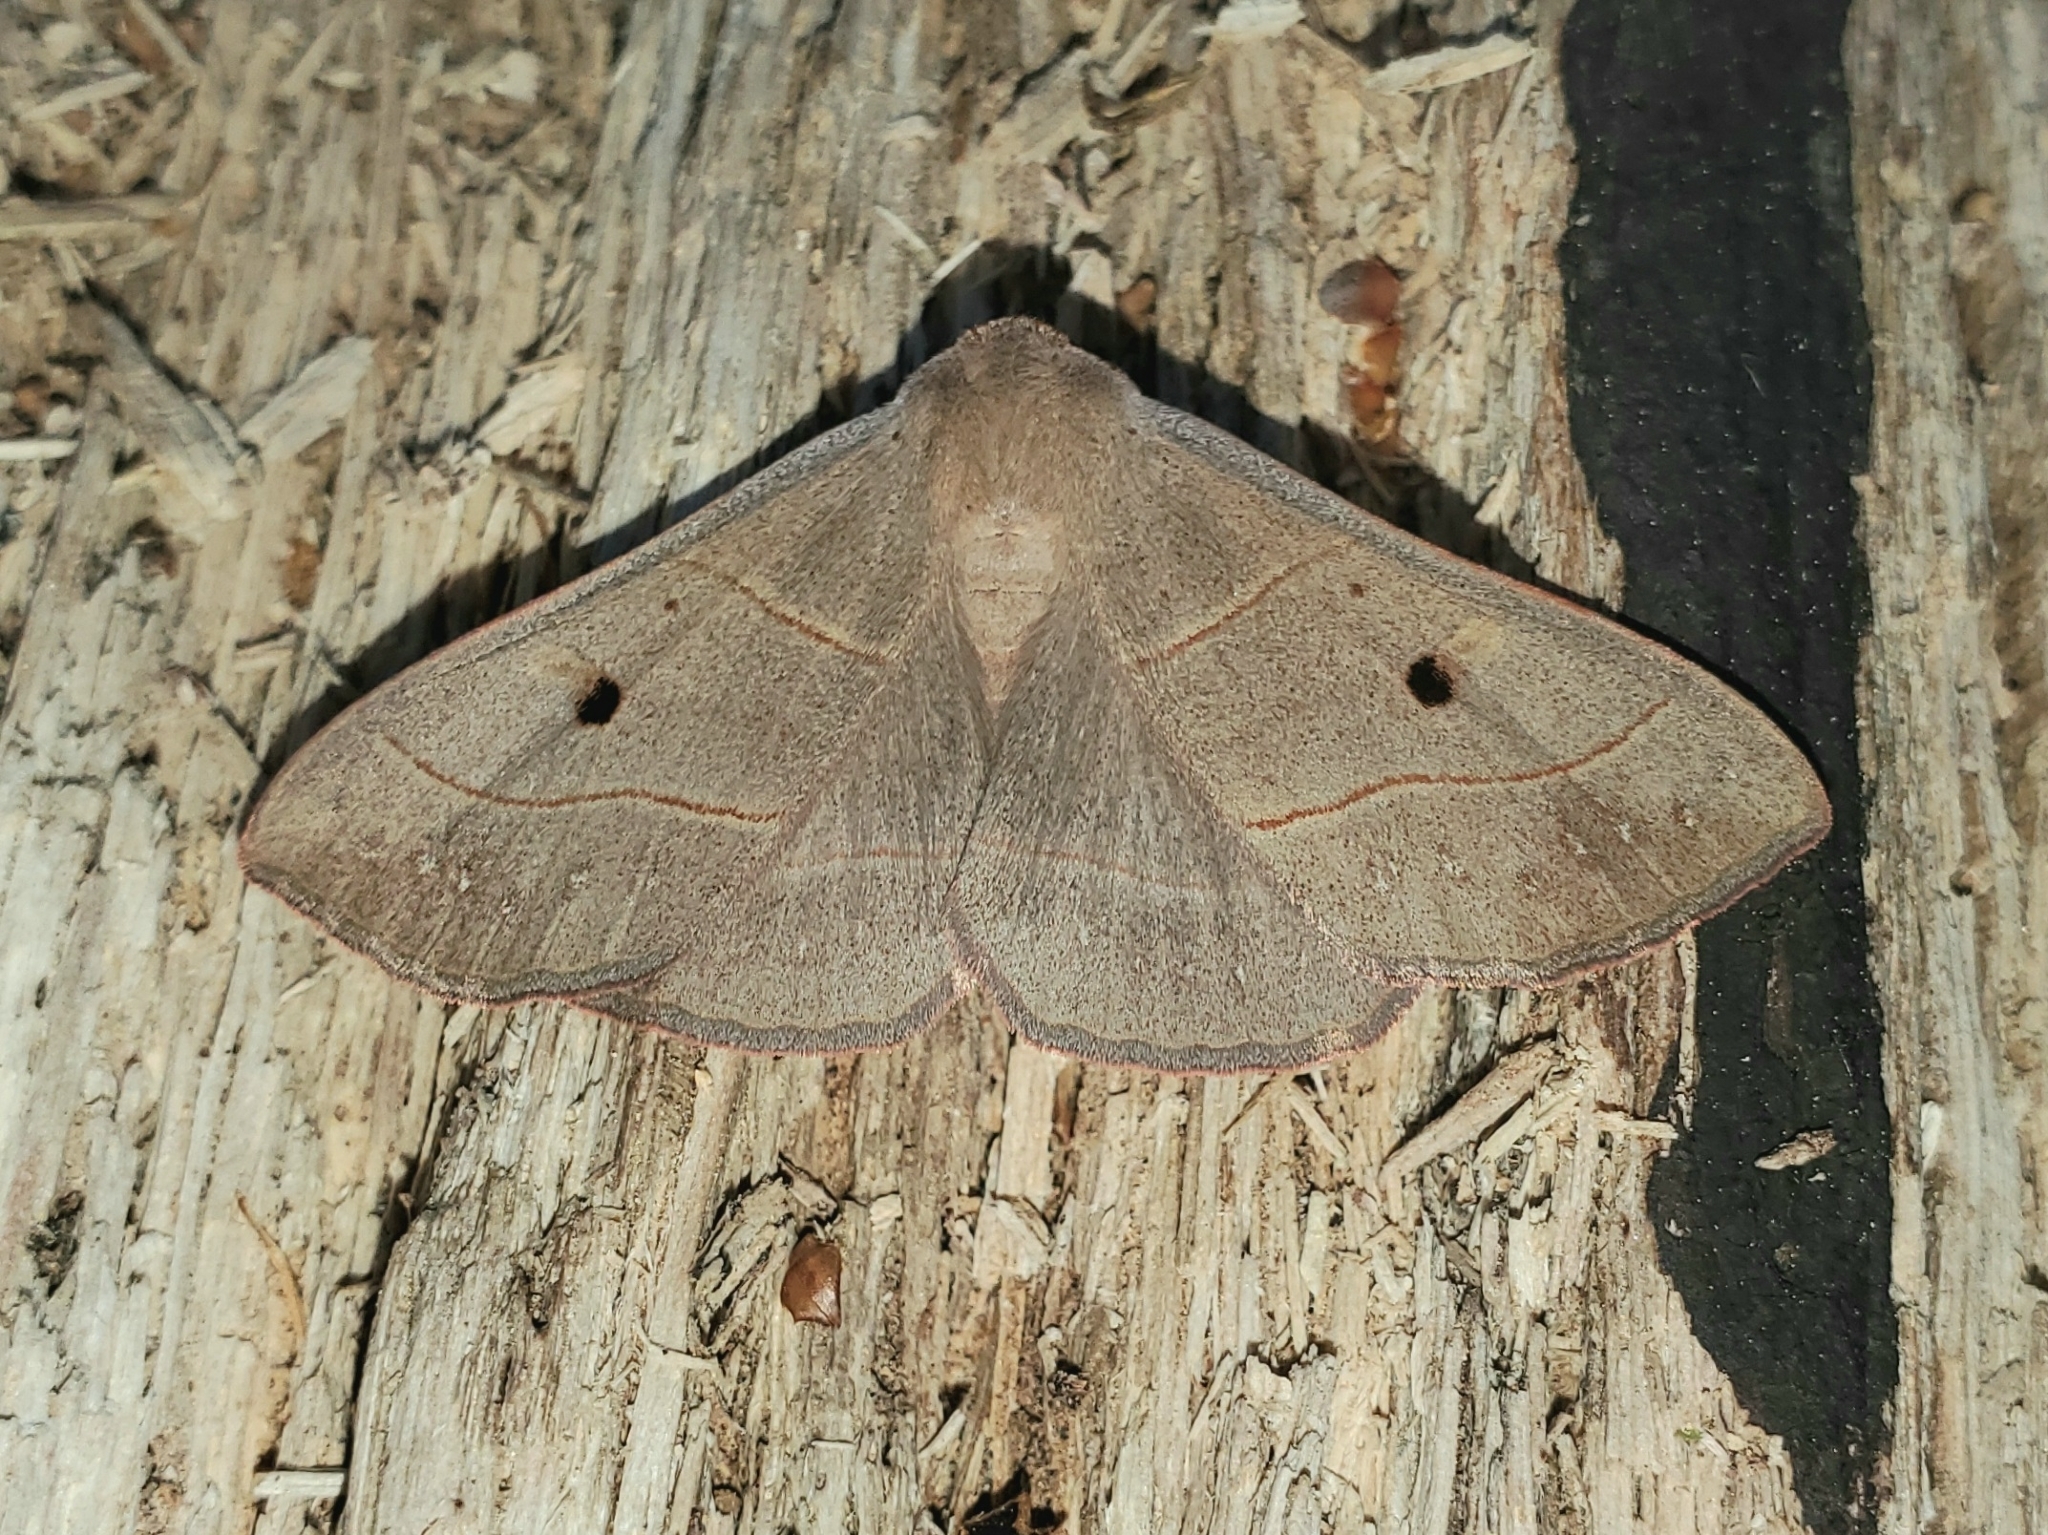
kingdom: Animalia
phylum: Arthropoda
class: Insecta
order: Lepidoptera
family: Erebidae
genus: Panopoda
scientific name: Panopoda rufimargo
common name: Red-lined panopoda moth
